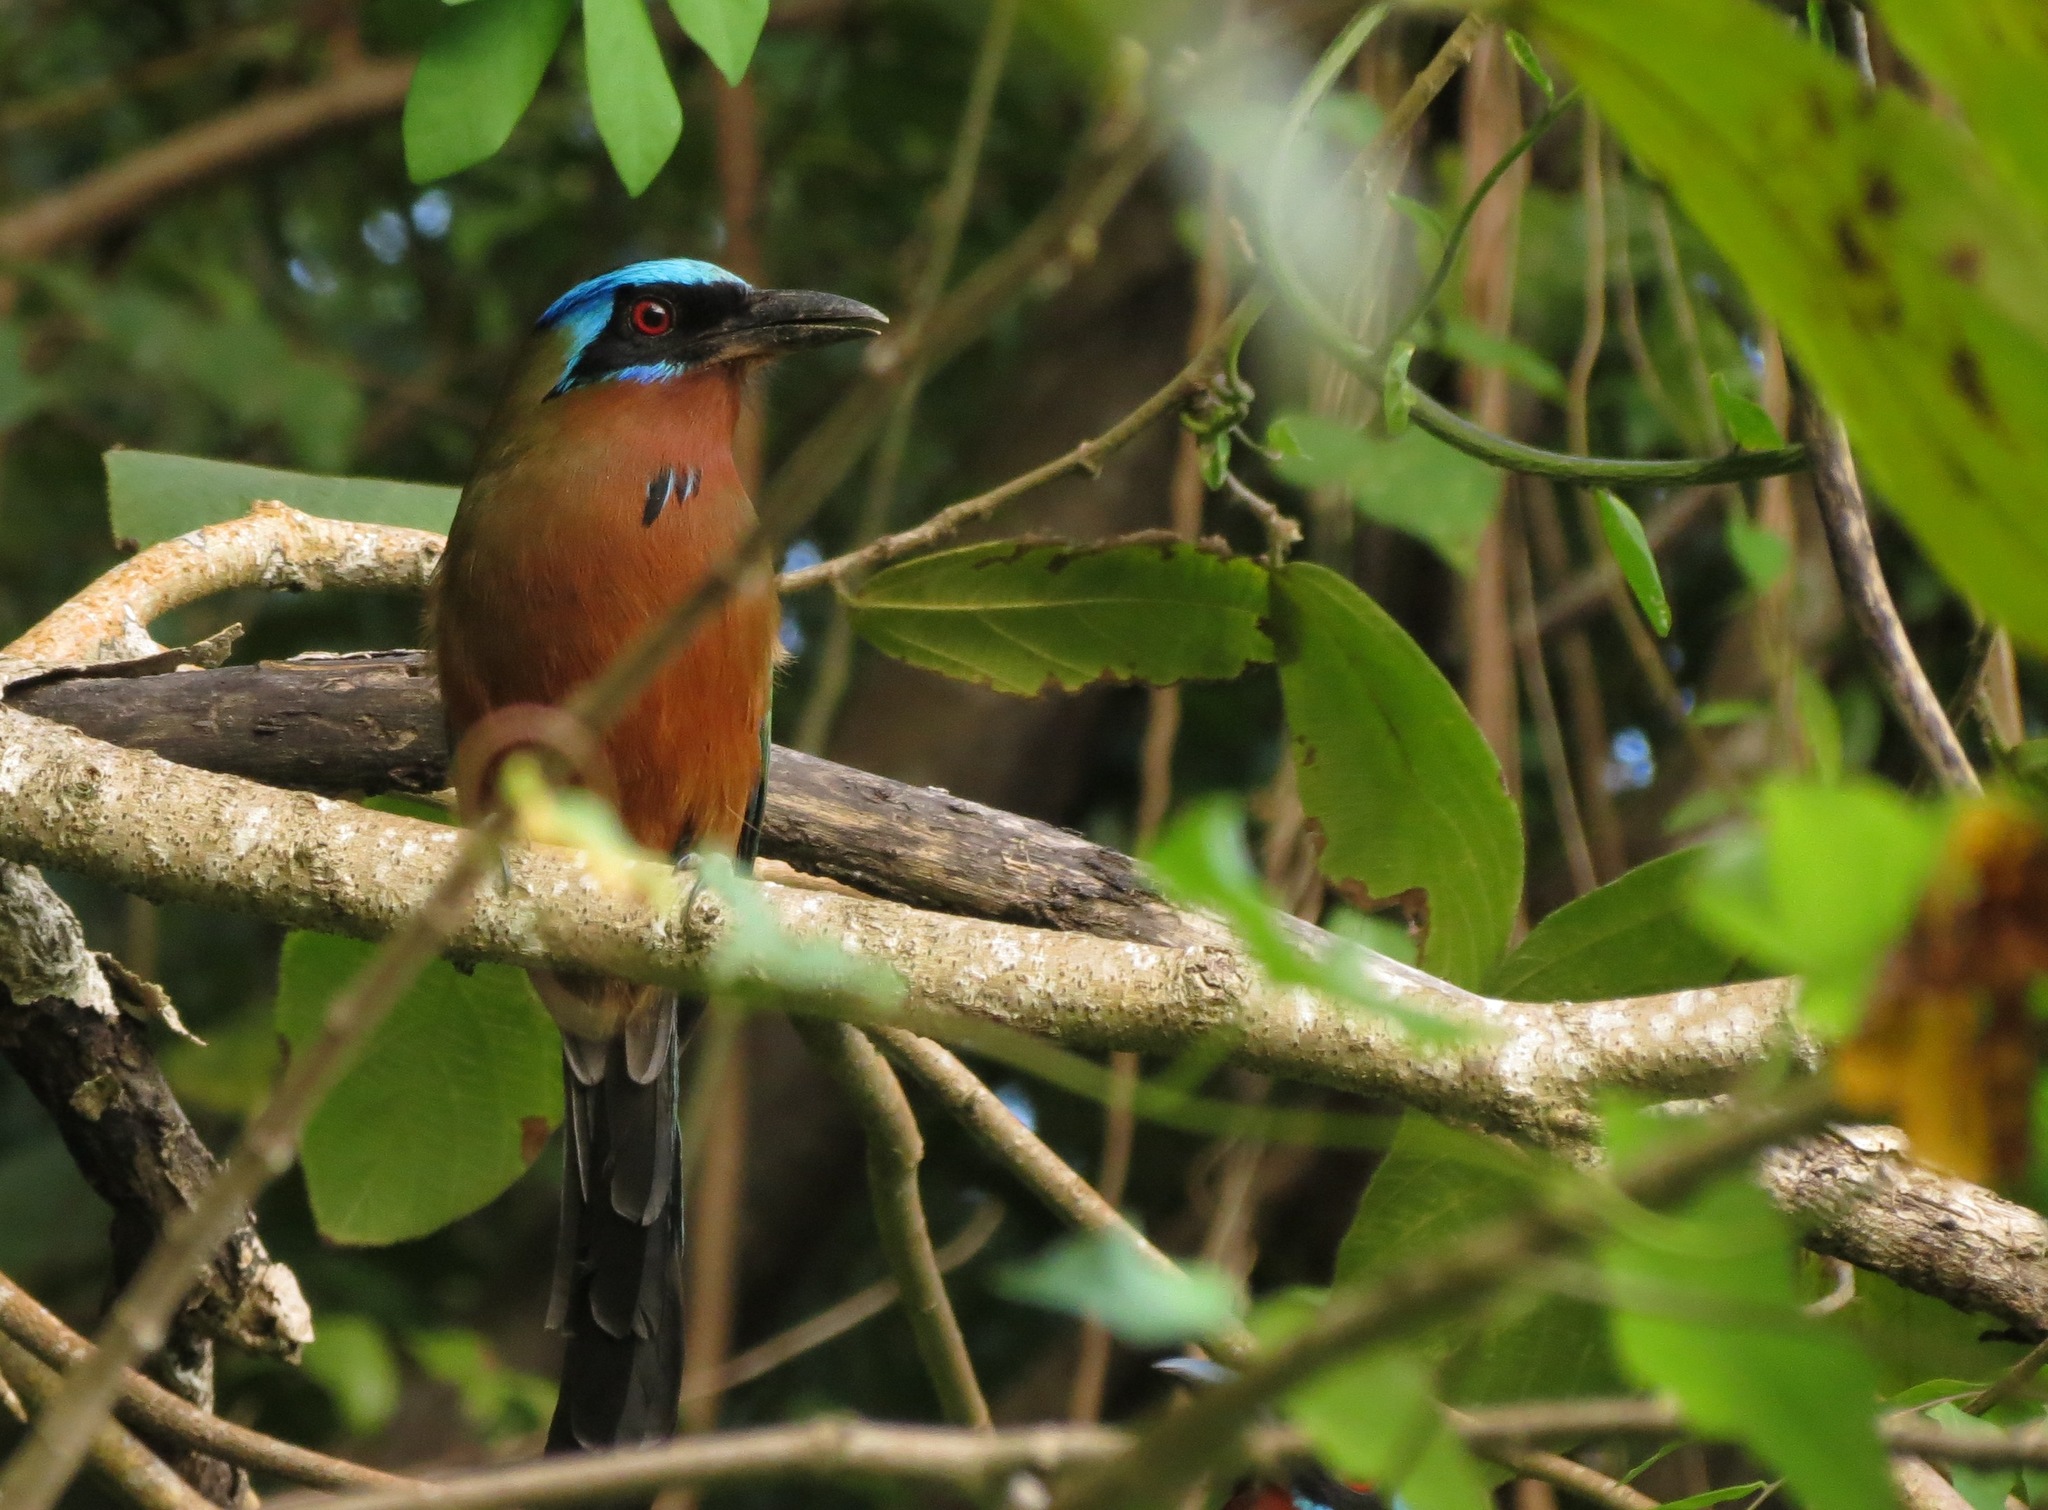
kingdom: Animalia
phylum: Chordata
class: Aves
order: Coraciiformes
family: Momotidae
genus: Momotus
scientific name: Momotus bahamensis
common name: Trinidad motmot
